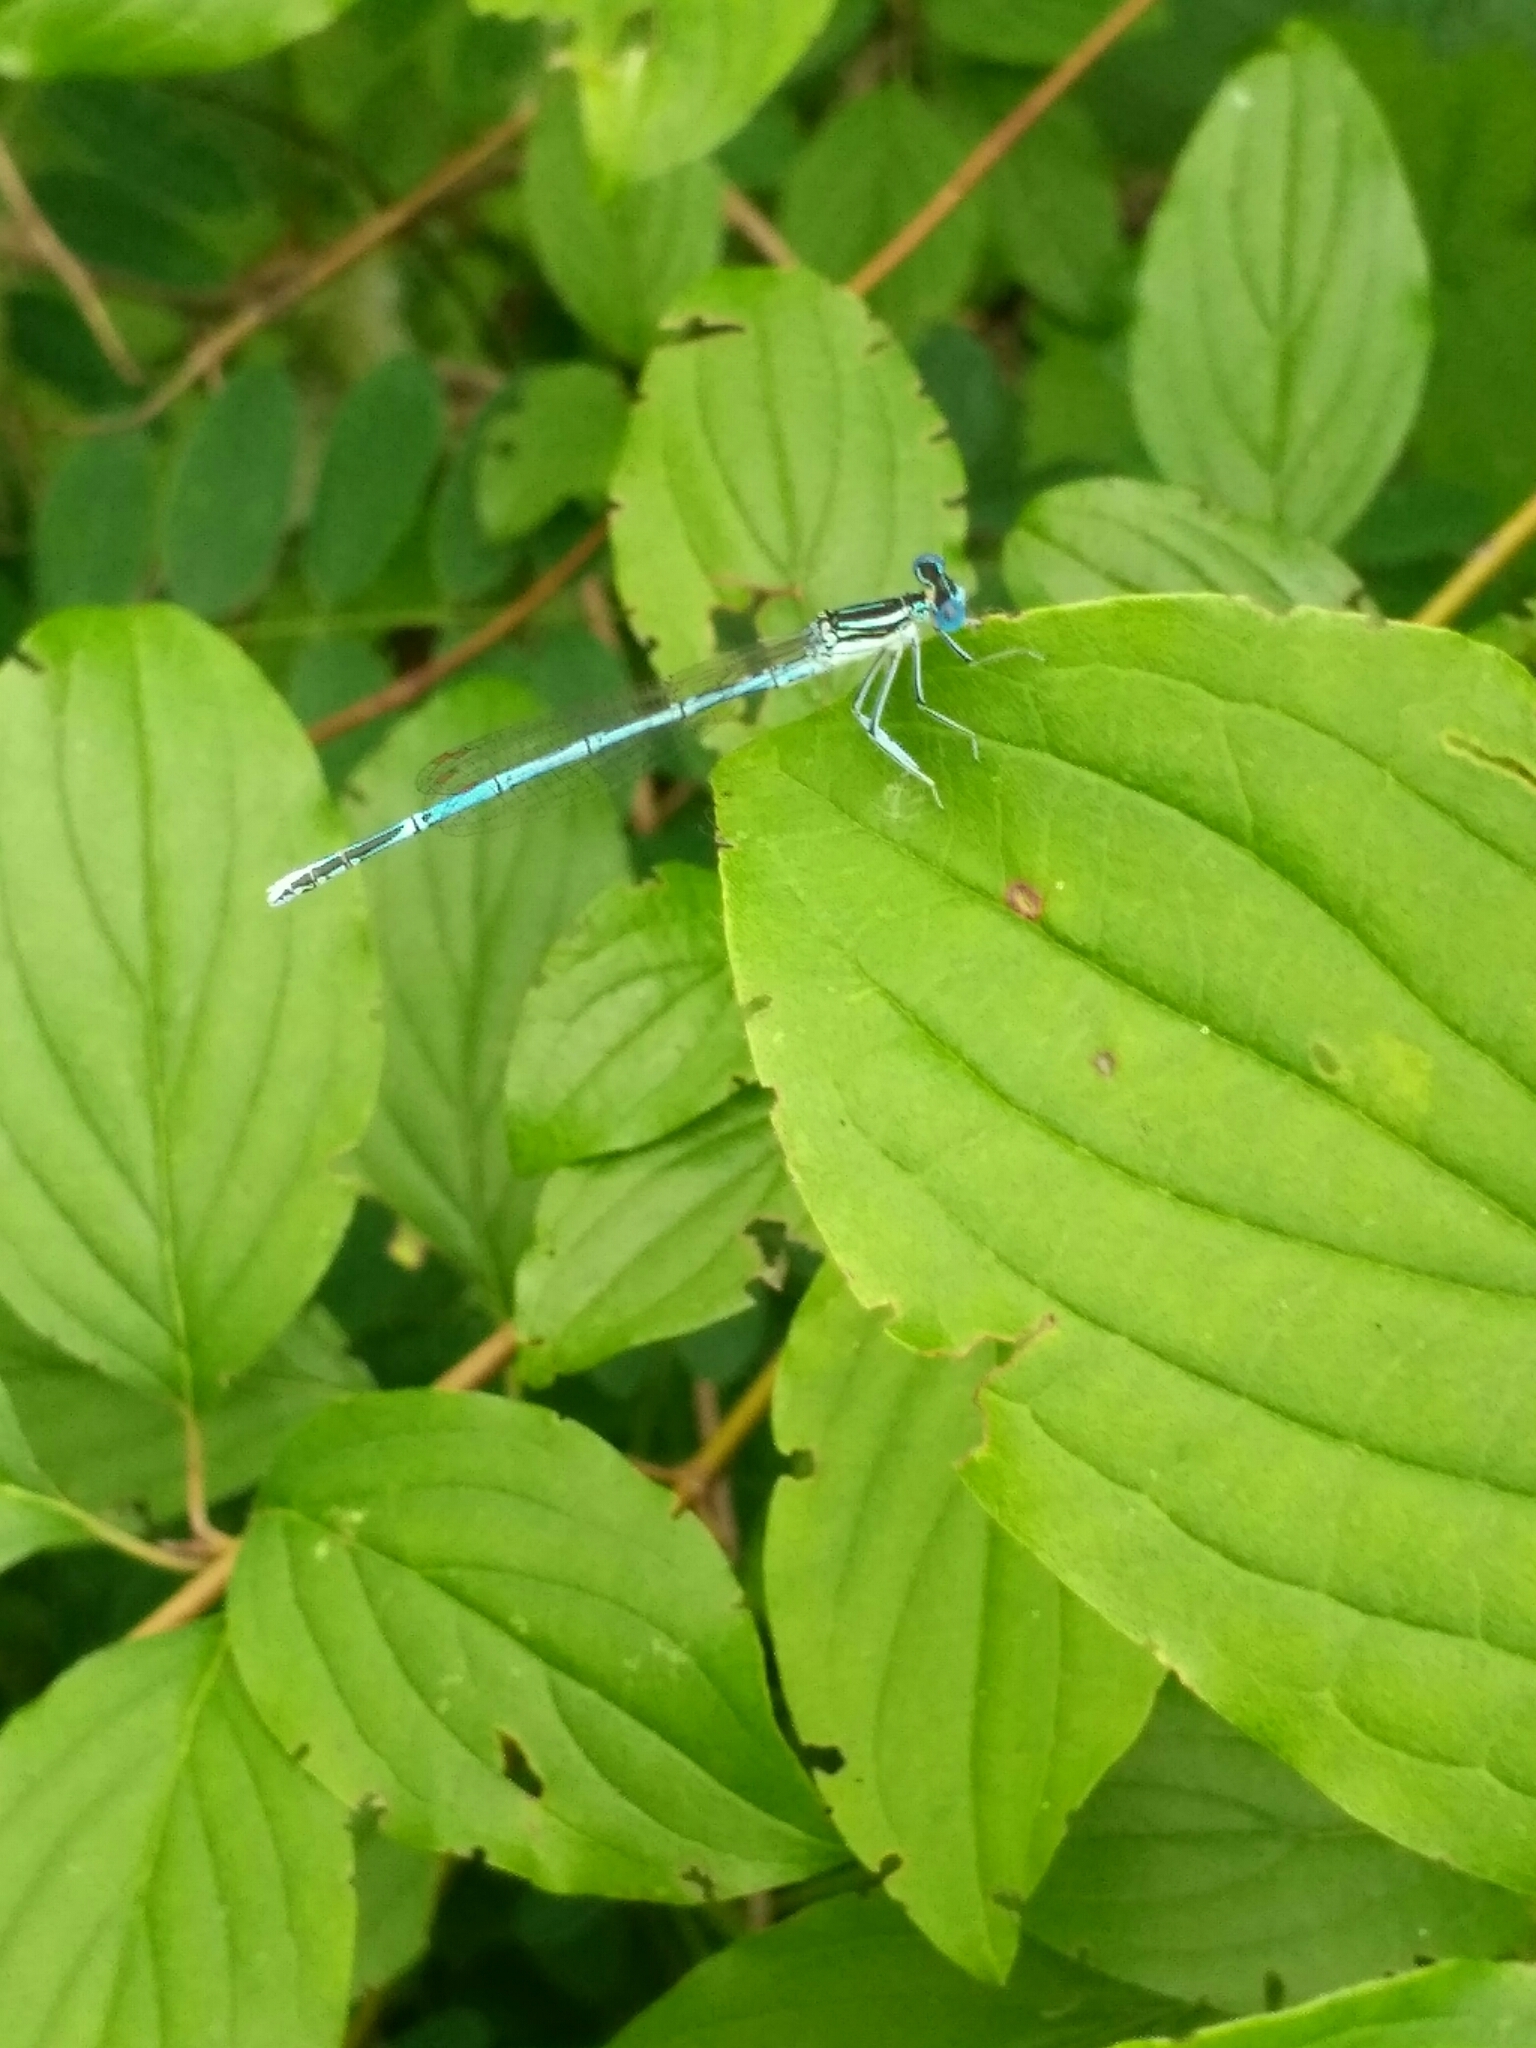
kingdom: Animalia
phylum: Arthropoda
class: Insecta
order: Odonata
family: Platycnemididae
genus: Platycnemis
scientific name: Platycnemis pennipes
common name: White-legged damselfly
